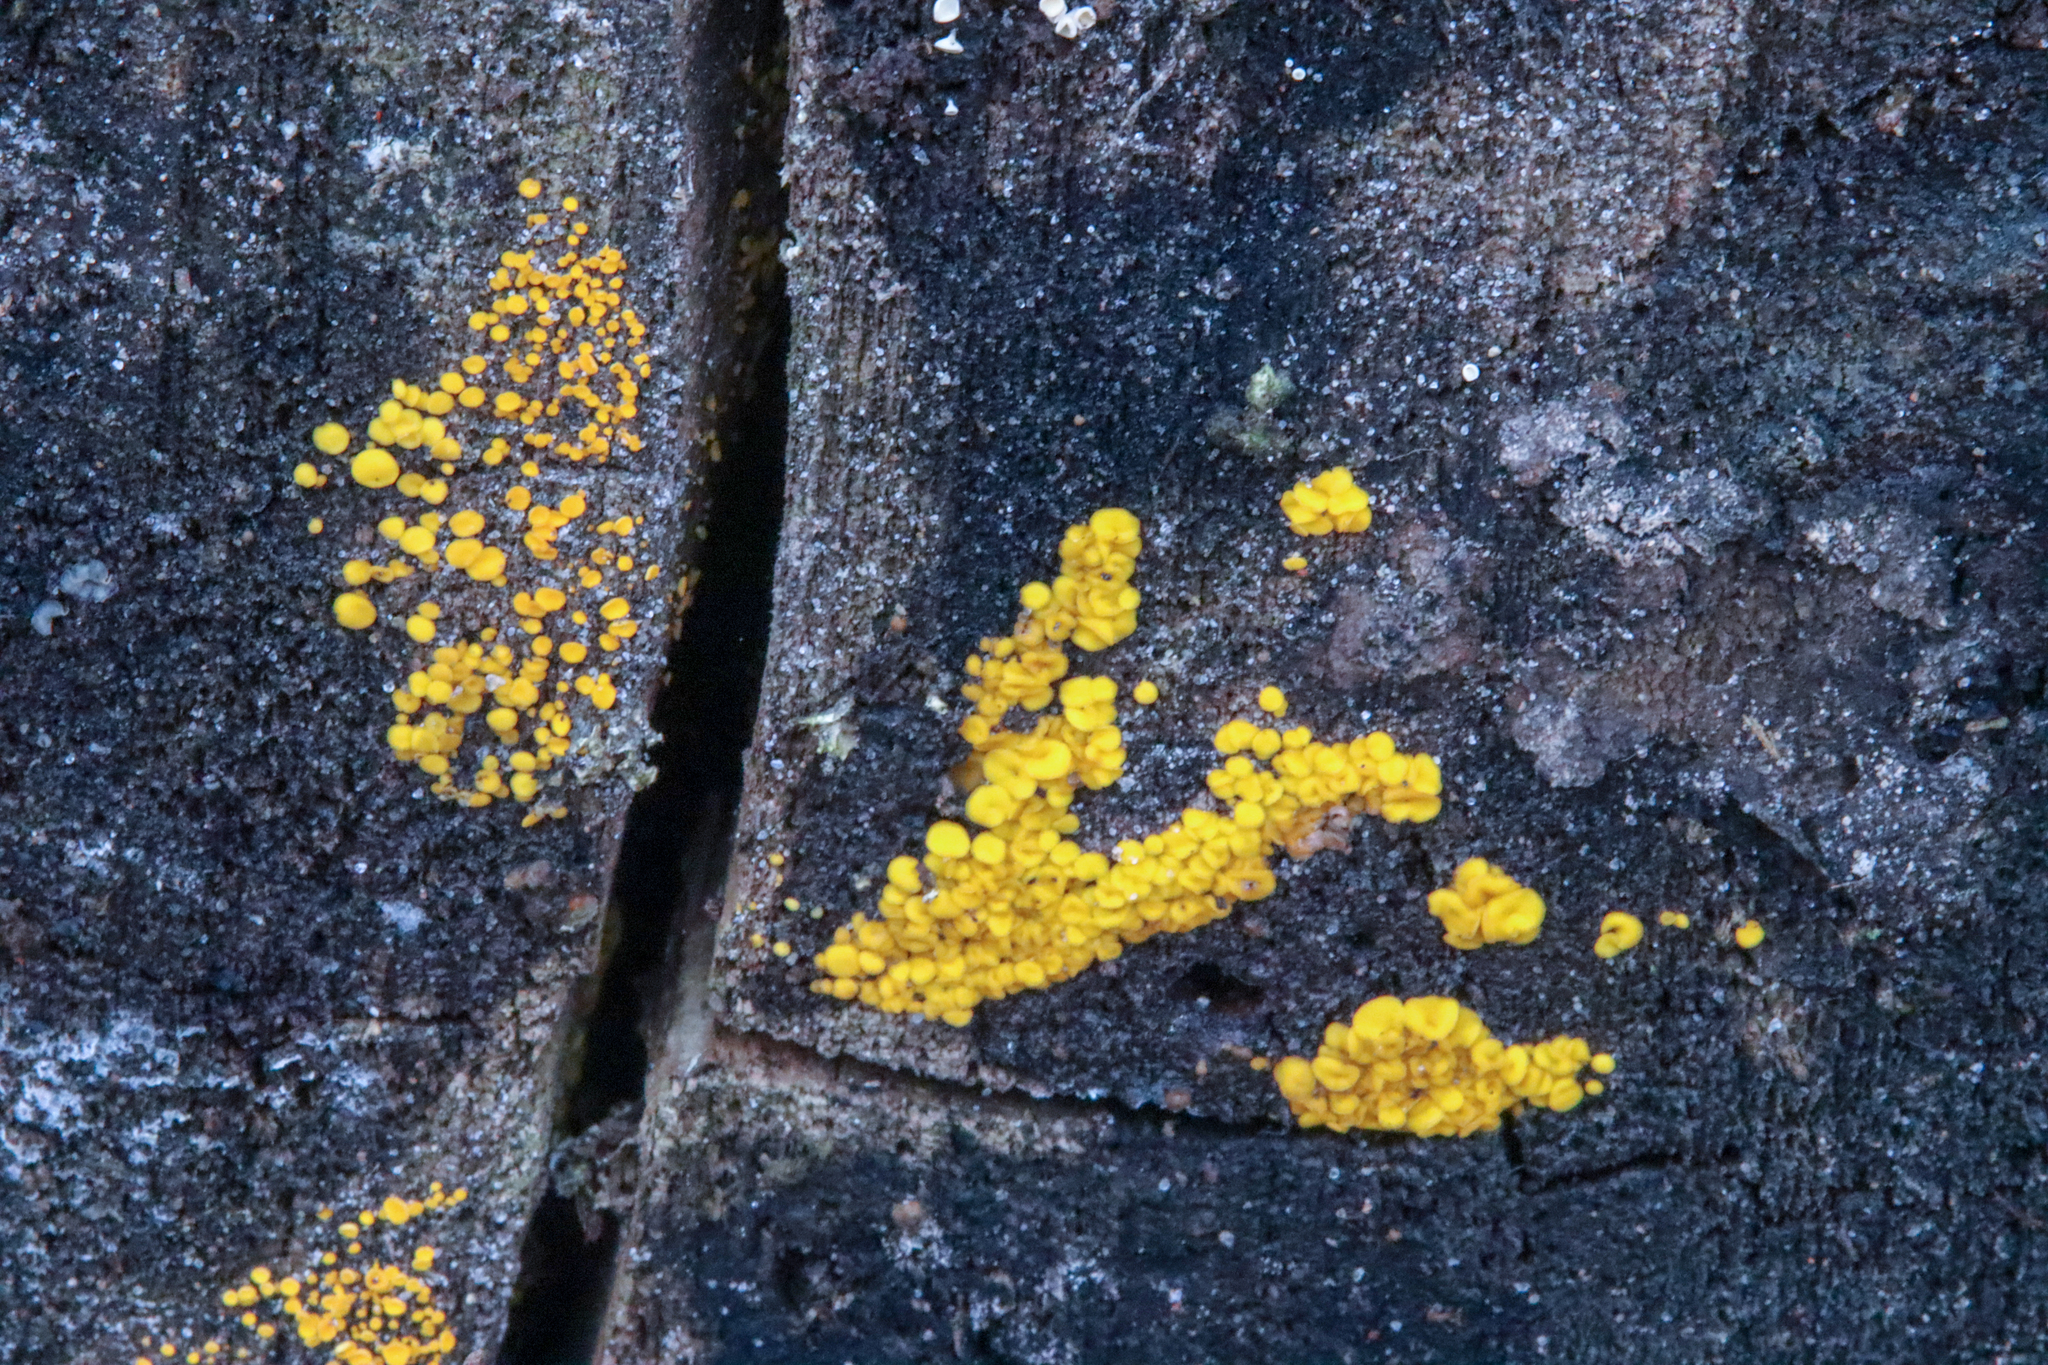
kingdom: Fungi
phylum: Ascomycota
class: Leotiomycetes
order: Helotiales
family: Pezizellaceae
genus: Calycina
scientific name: Calycina citrina
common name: Yellow fairy cups
